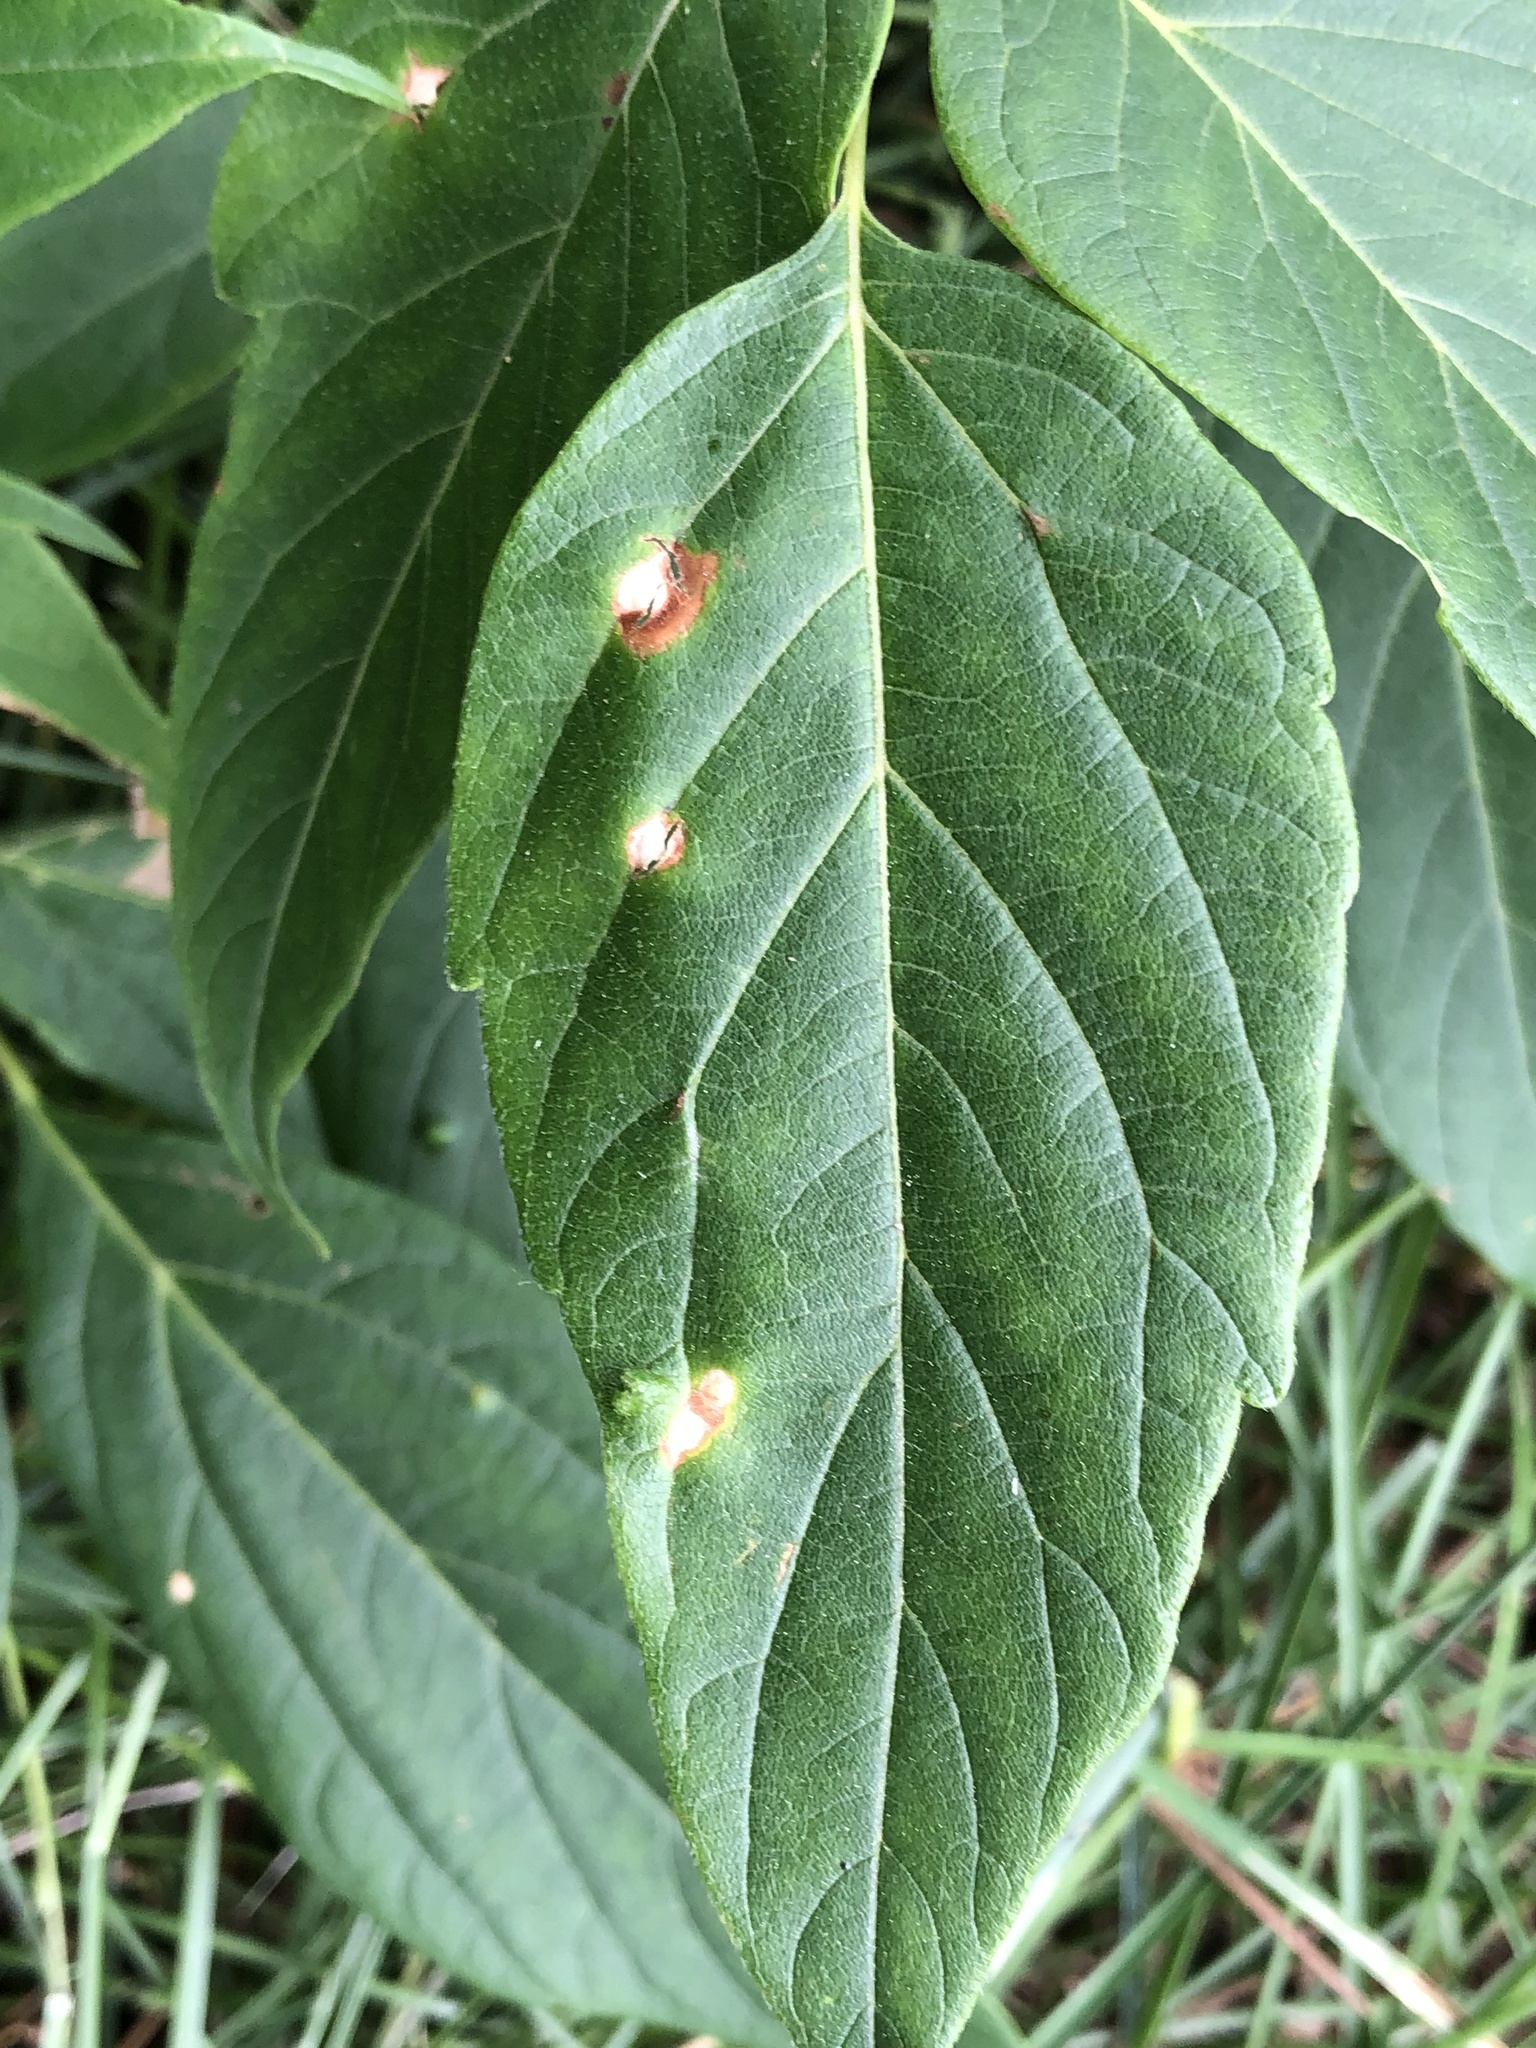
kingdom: Animalia
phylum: Arthropoda
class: Arachnida
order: Trombidiformes
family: Eriophyidae
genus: Aceria
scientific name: Aceria
